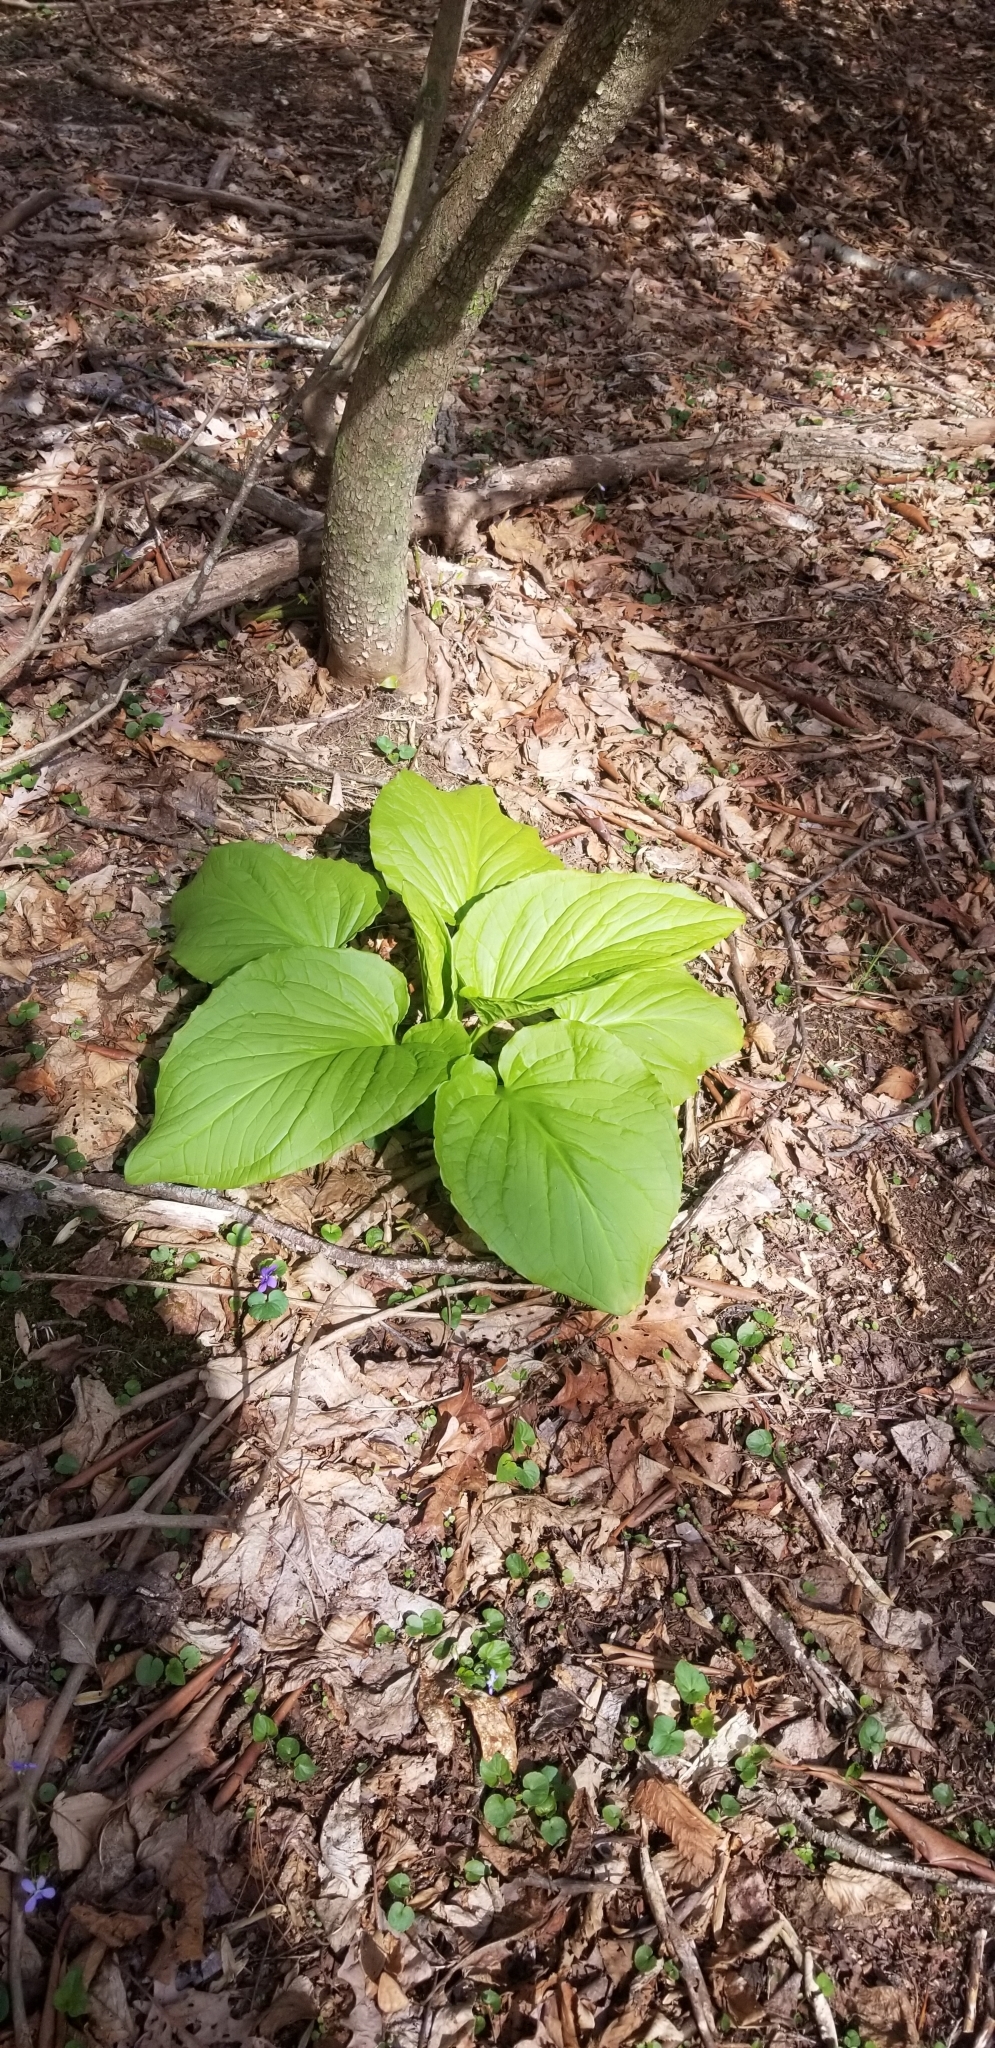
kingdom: Plantae
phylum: Tracheophyta
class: Liliopsida
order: Alismatales
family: Araceae
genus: Symplocarpus
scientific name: Symplocarpus foetidus
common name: Eastern skunk cabbage
